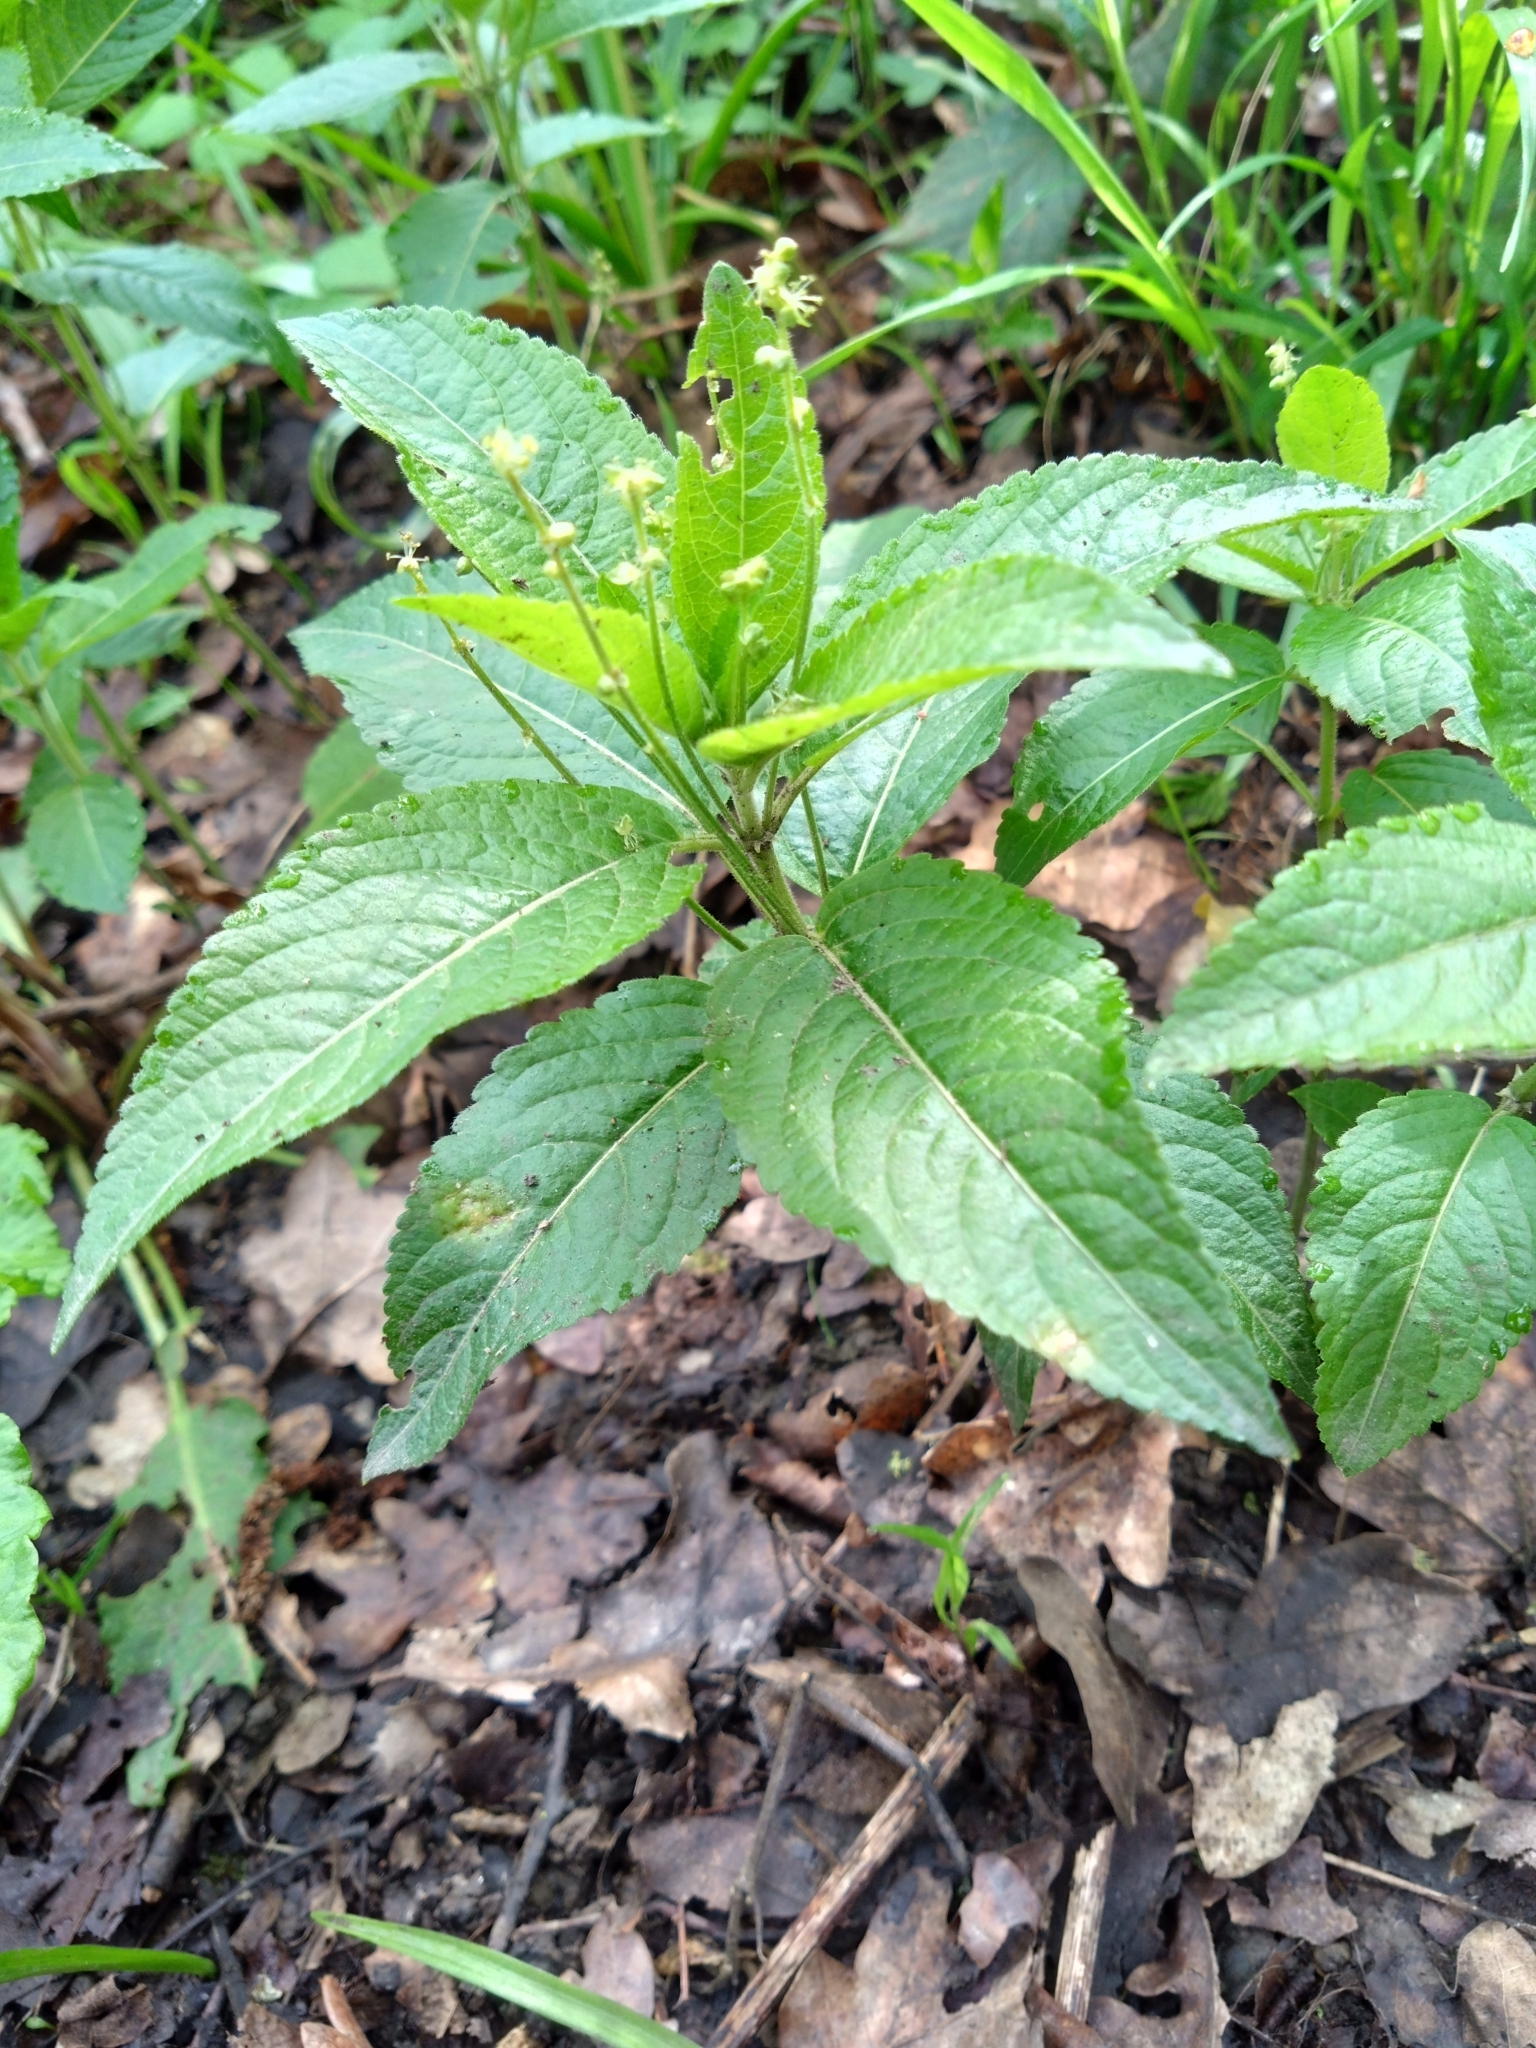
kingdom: Plantae
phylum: Tracheophyta
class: Magnoliopsida
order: Malpighiales
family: Euphorbiaceae
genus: Mercurialis
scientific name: Mercurialis perennis
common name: Dog mercury
